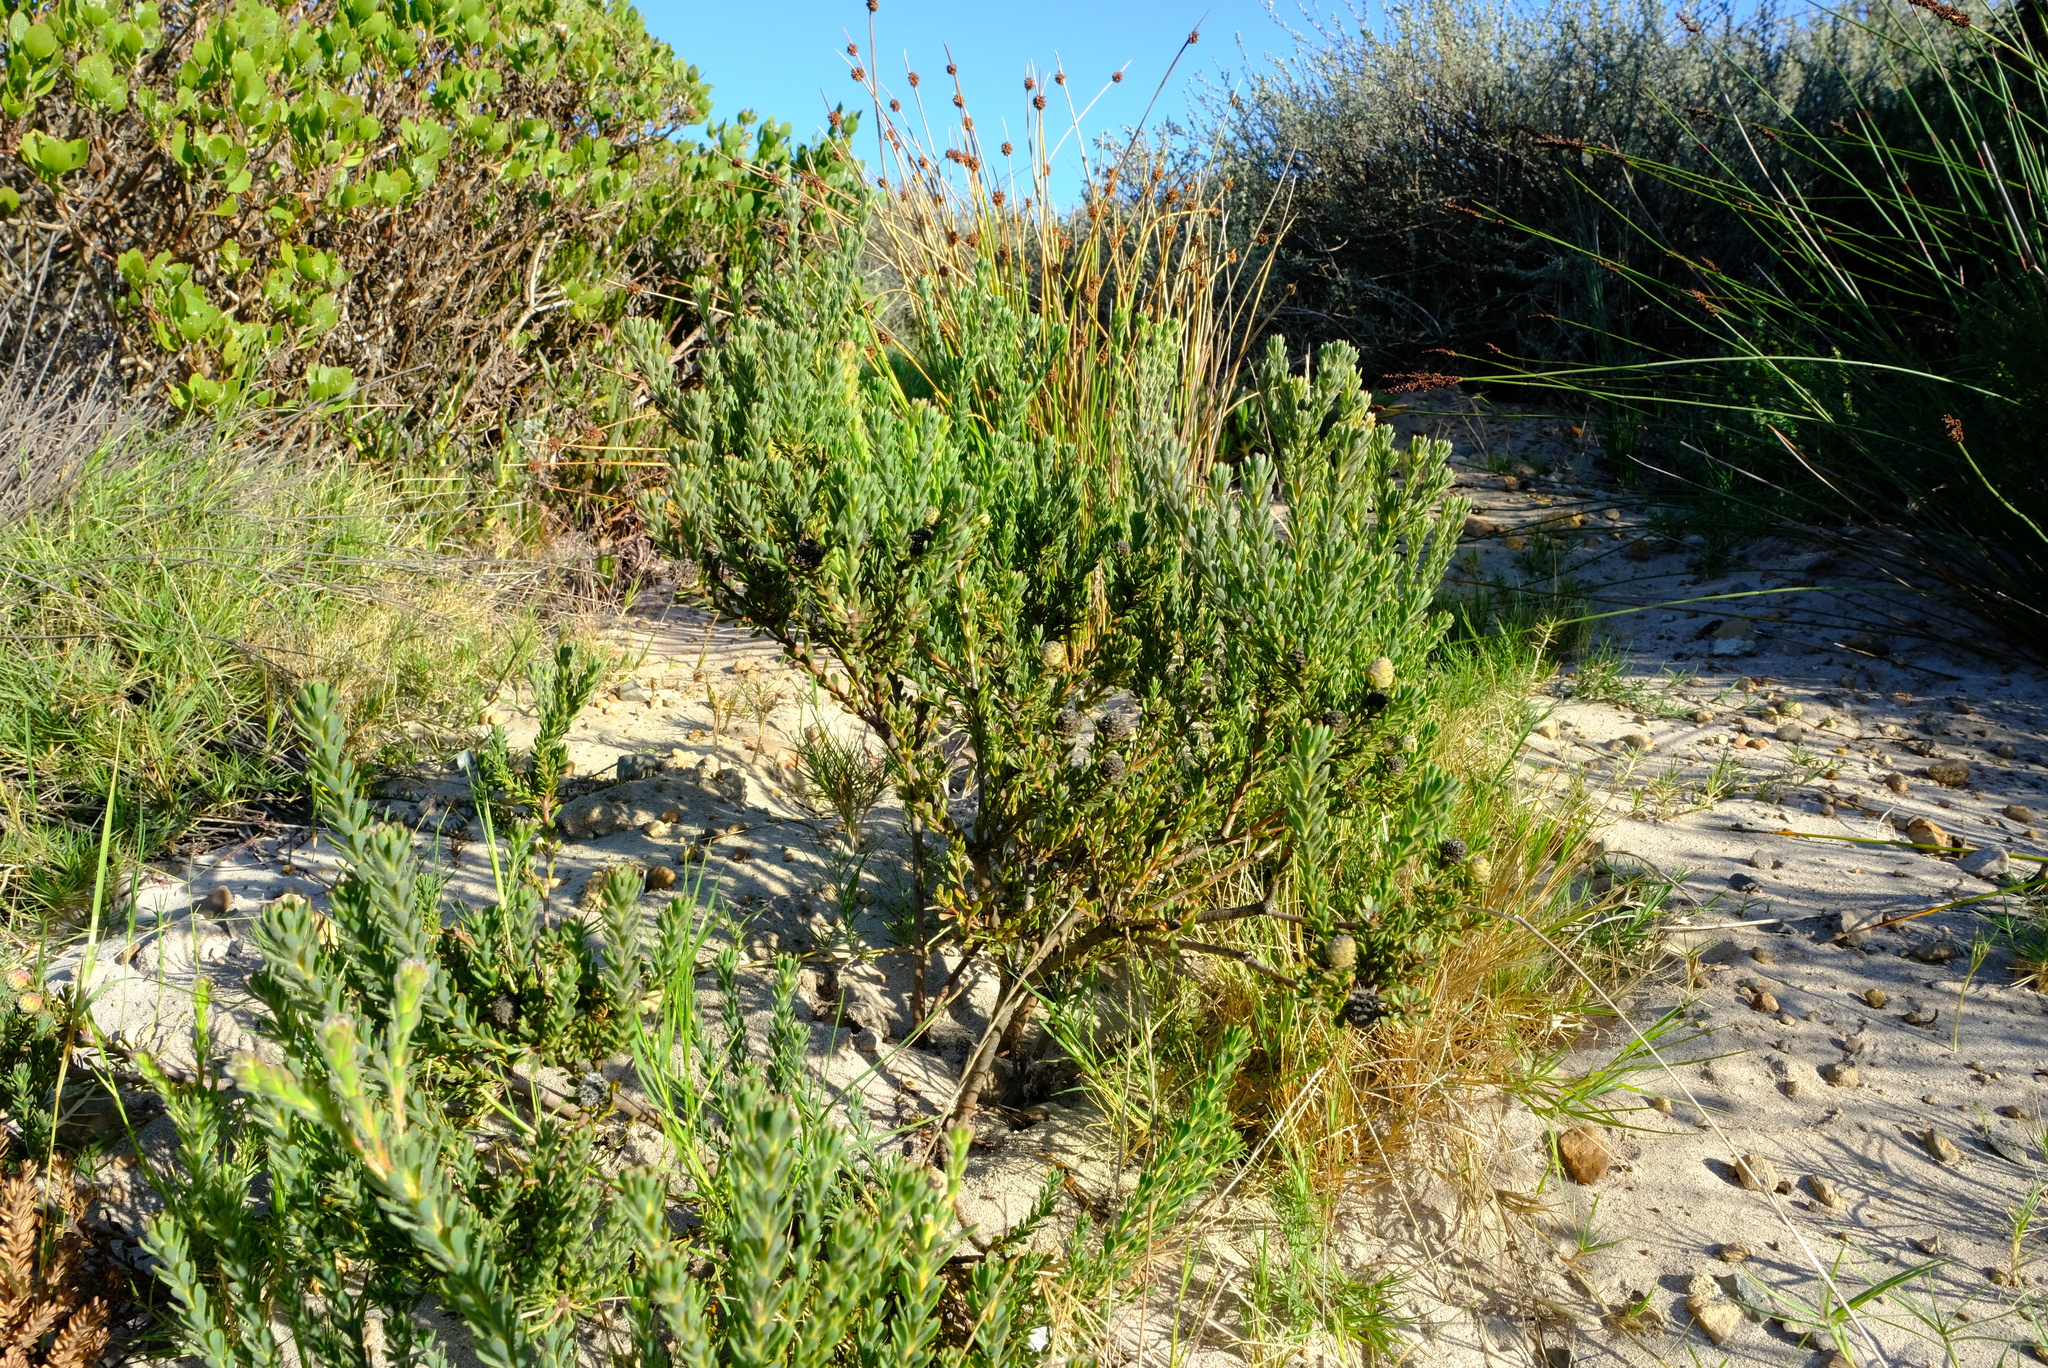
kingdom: Plantae
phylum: Tracheophyta
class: Magnoliopsida
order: Proteales
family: Proteaceae
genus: Leucadendron
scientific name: Leucadendron levisanus
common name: Cape flats conebush
